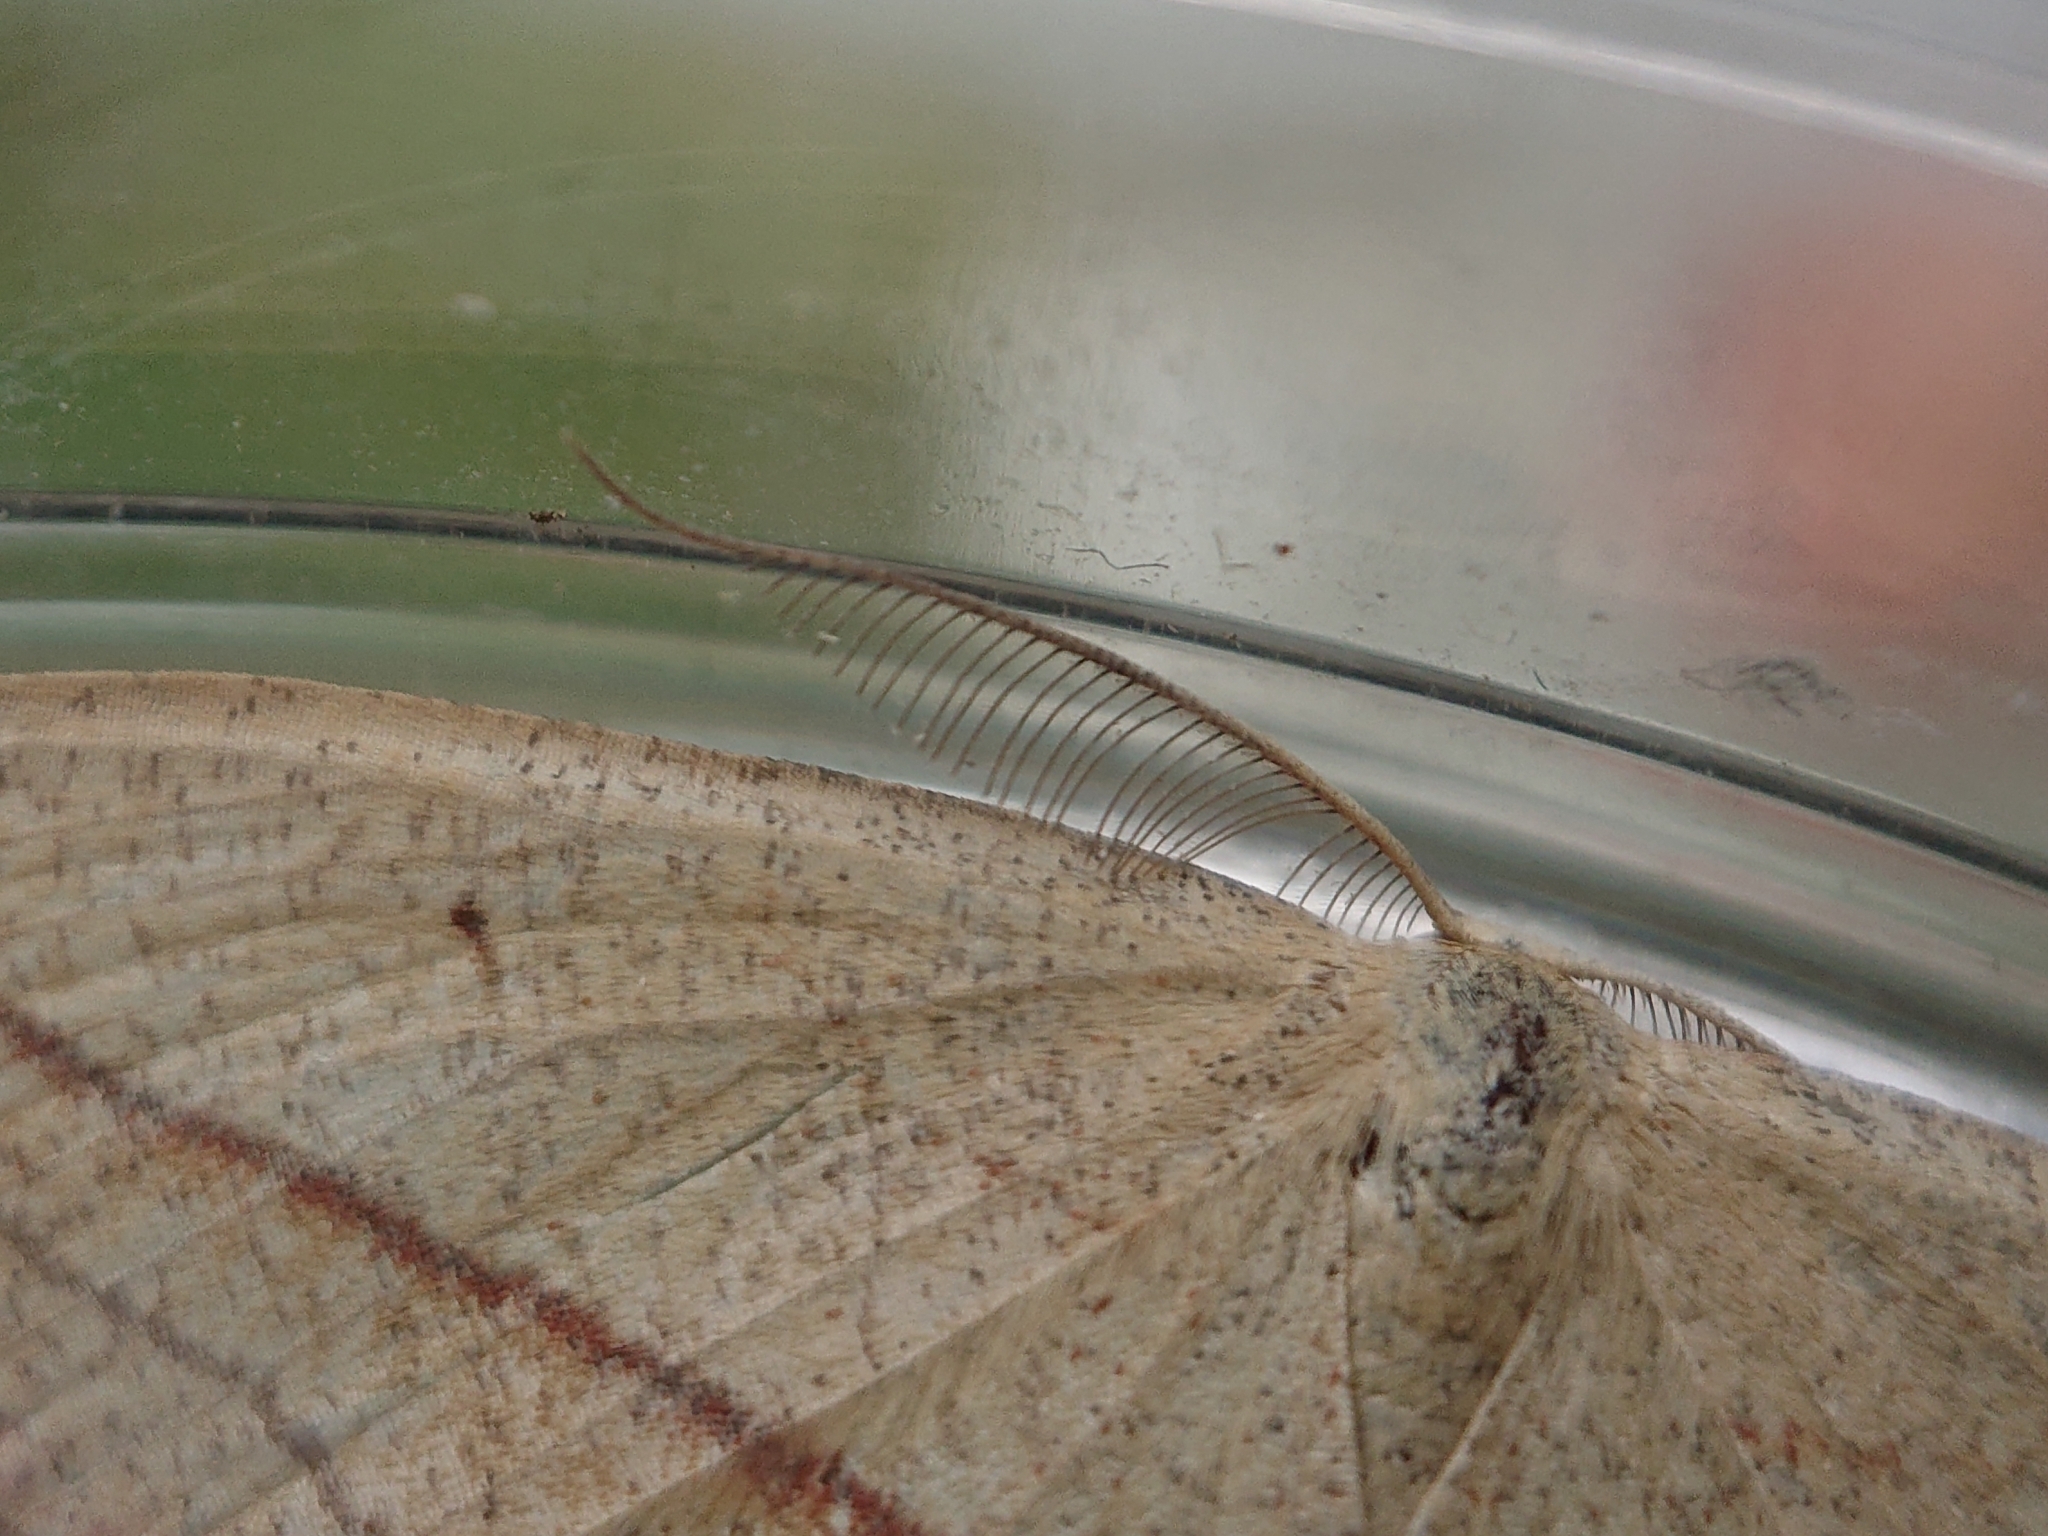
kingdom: Animalia
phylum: Arthropoda
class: Insecta
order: Lepidoptera
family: Geometridae
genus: Timandra
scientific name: Timandra comae
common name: Blood-vein
